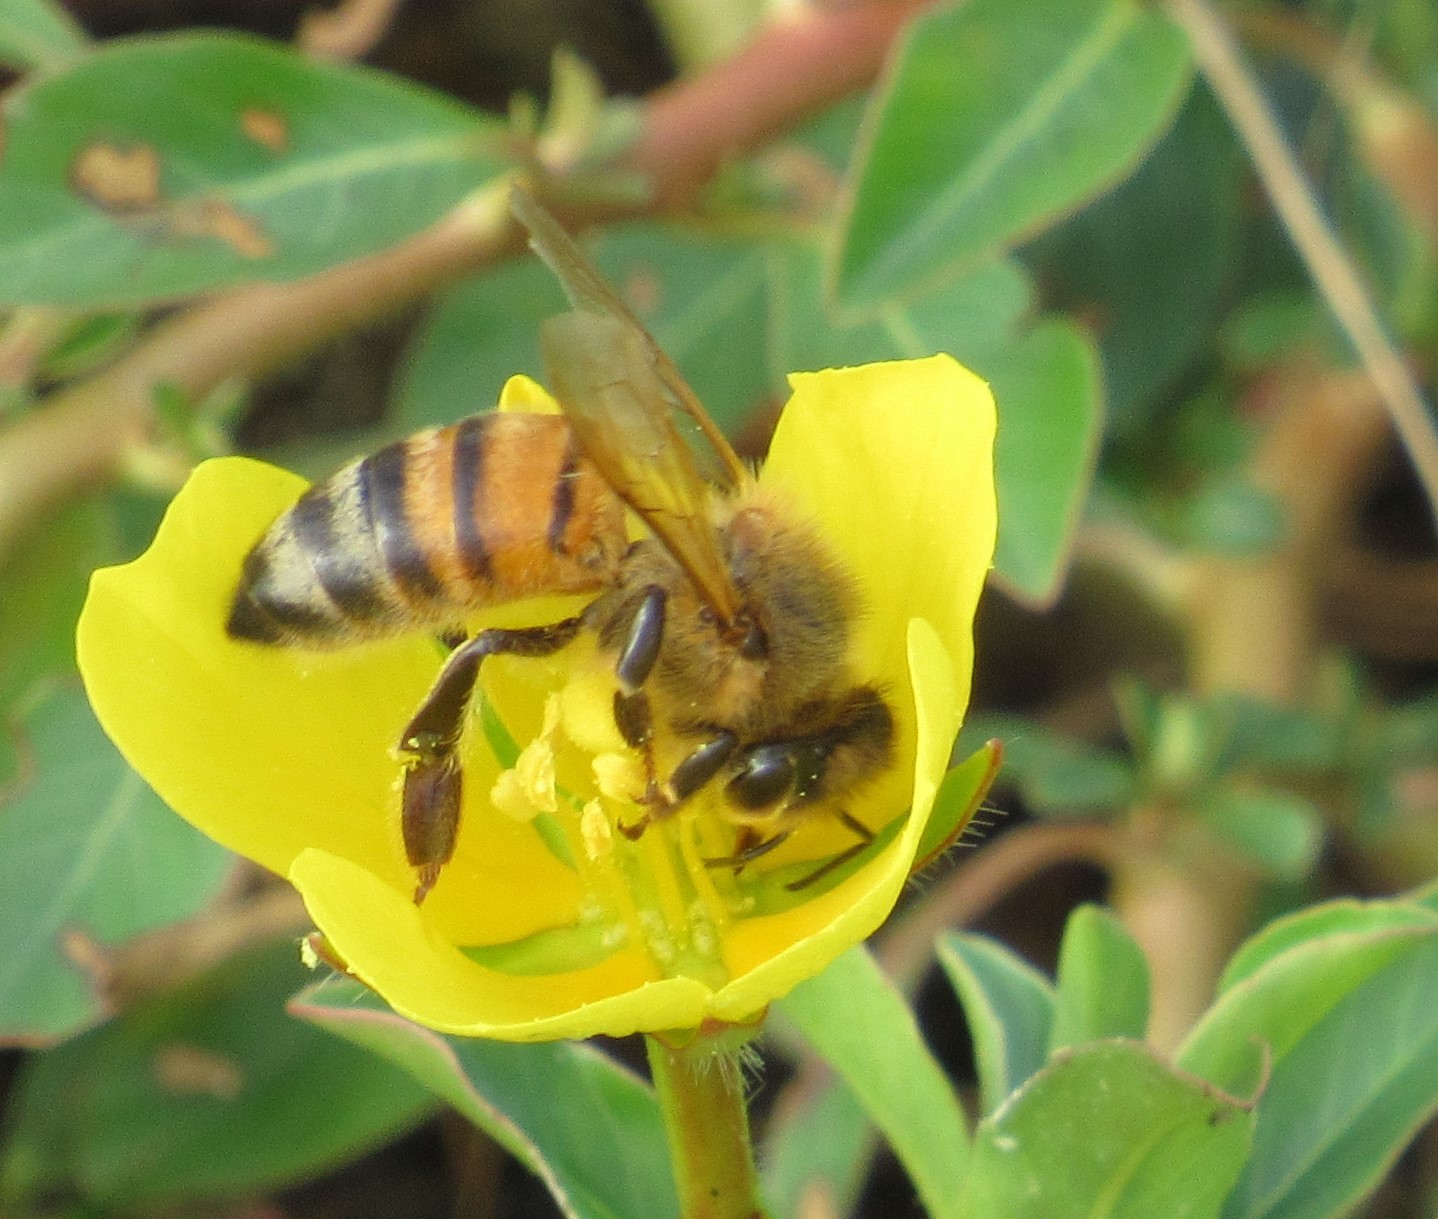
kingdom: Animalia
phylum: Arthropoda
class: Insecta
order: Hymenoptera
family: Apidae
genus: Apis
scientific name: Apis mellifera
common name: Honey bee
